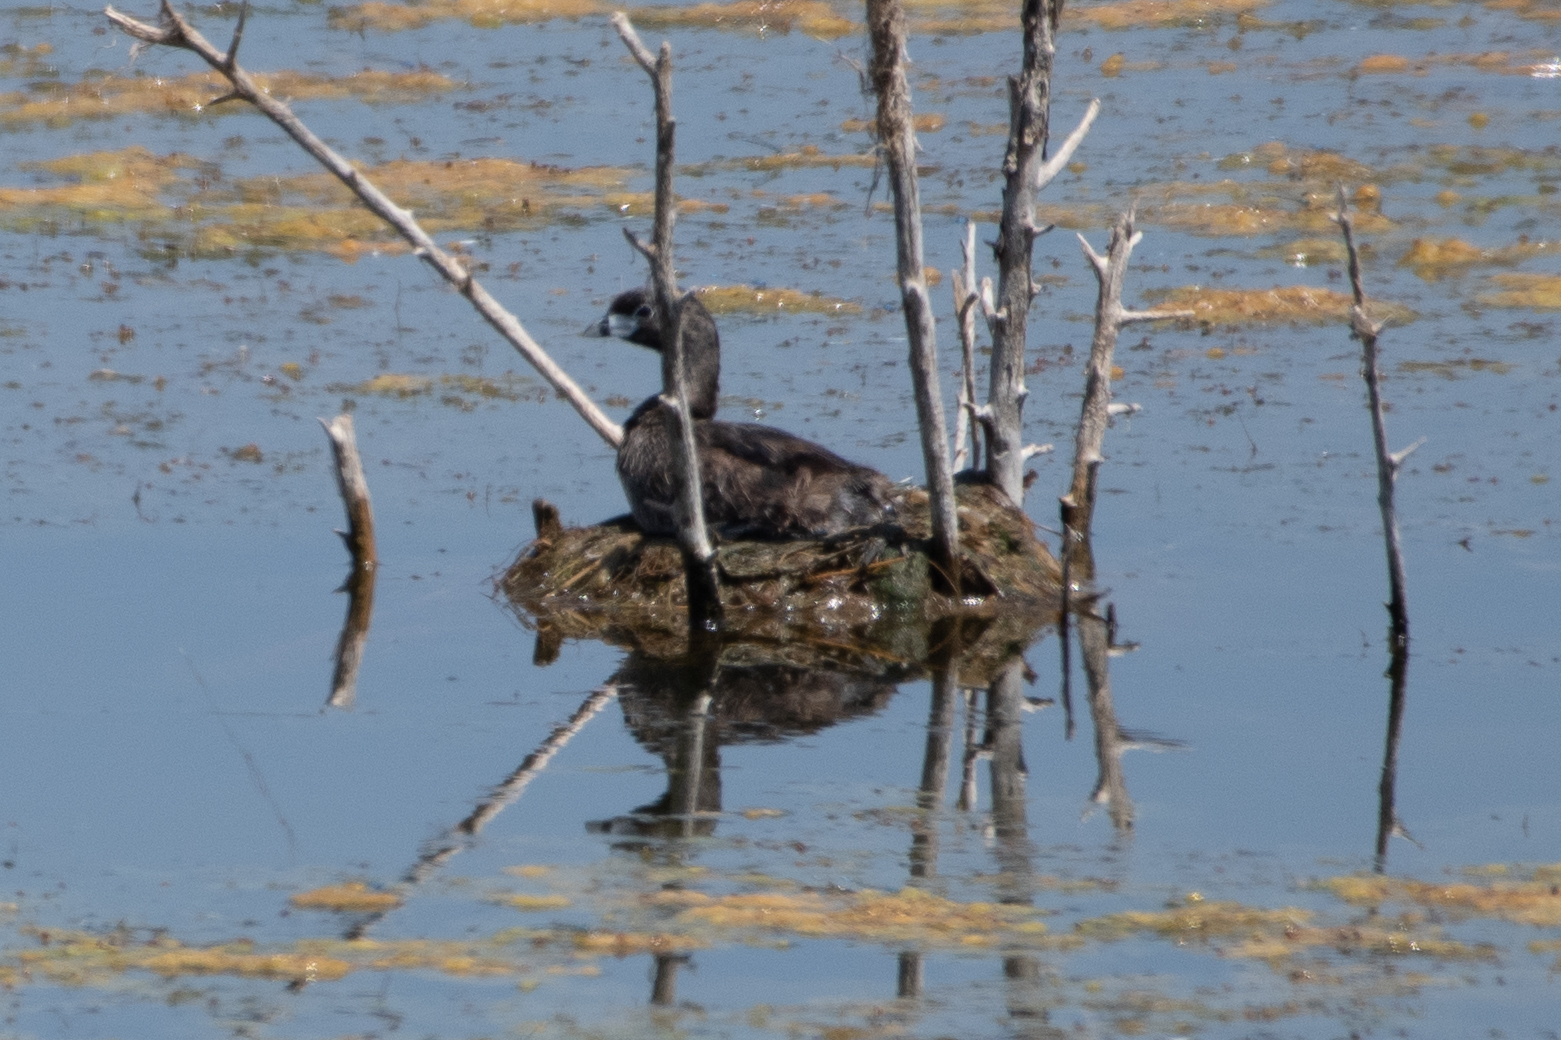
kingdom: Animalia
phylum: Chordata
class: Aves
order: Podicipediformes
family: Podicipedidae
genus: Podilymbus
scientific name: Podilymbus podiceps
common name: Pied-billed grebe
